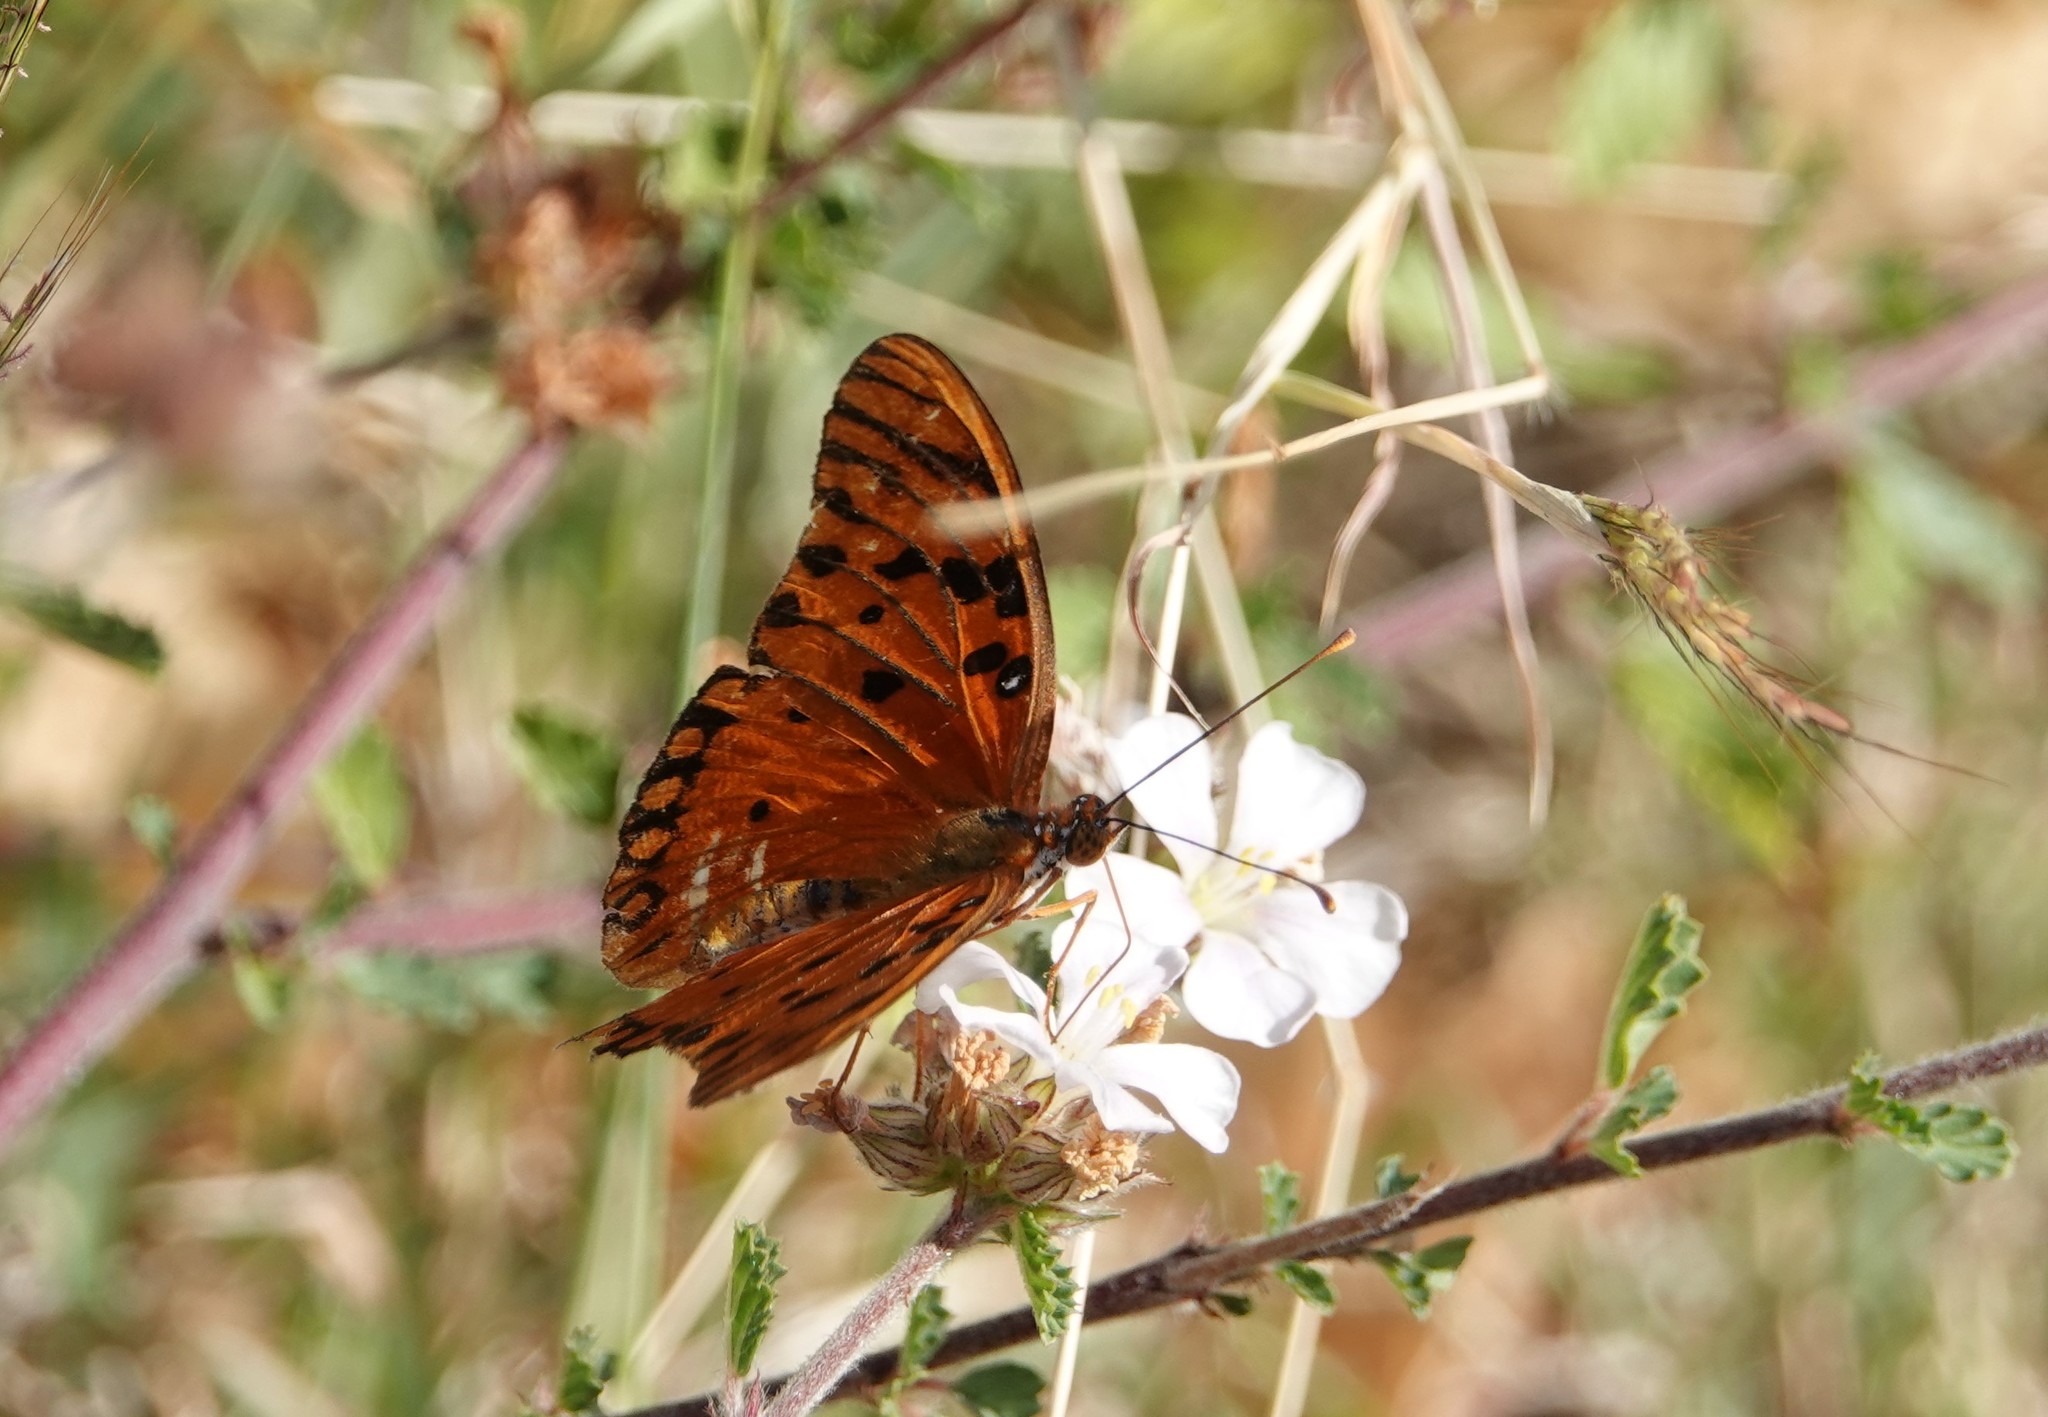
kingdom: Animalia
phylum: Arthropoda
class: Insecta
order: Lepidoptera
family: Nymphalidae
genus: Dione
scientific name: Dione vanillae
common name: Gulf fritillary
